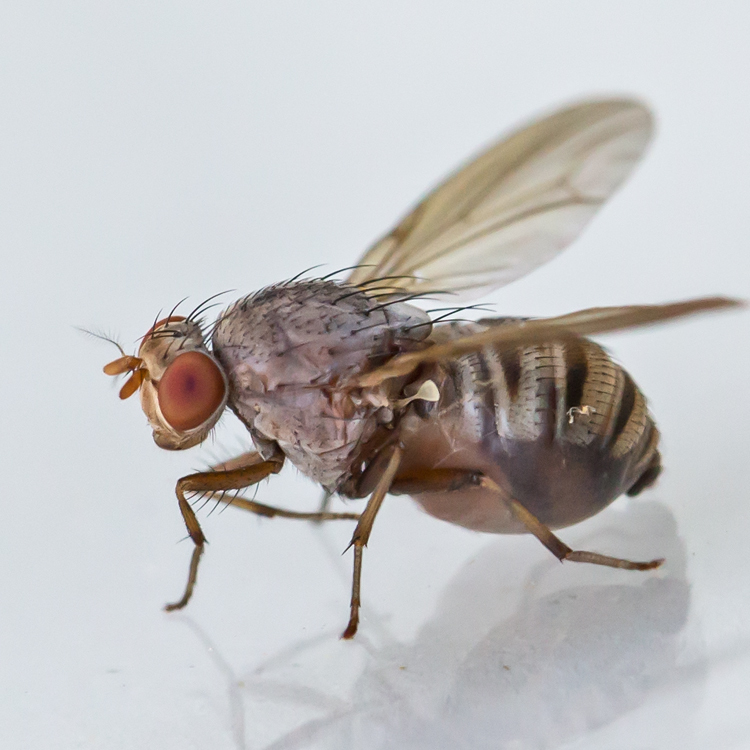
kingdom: Animalia
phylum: Arthropoda
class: Insecta
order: Diptera
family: Lauxaniidae
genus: Minettia
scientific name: Minettia magna
